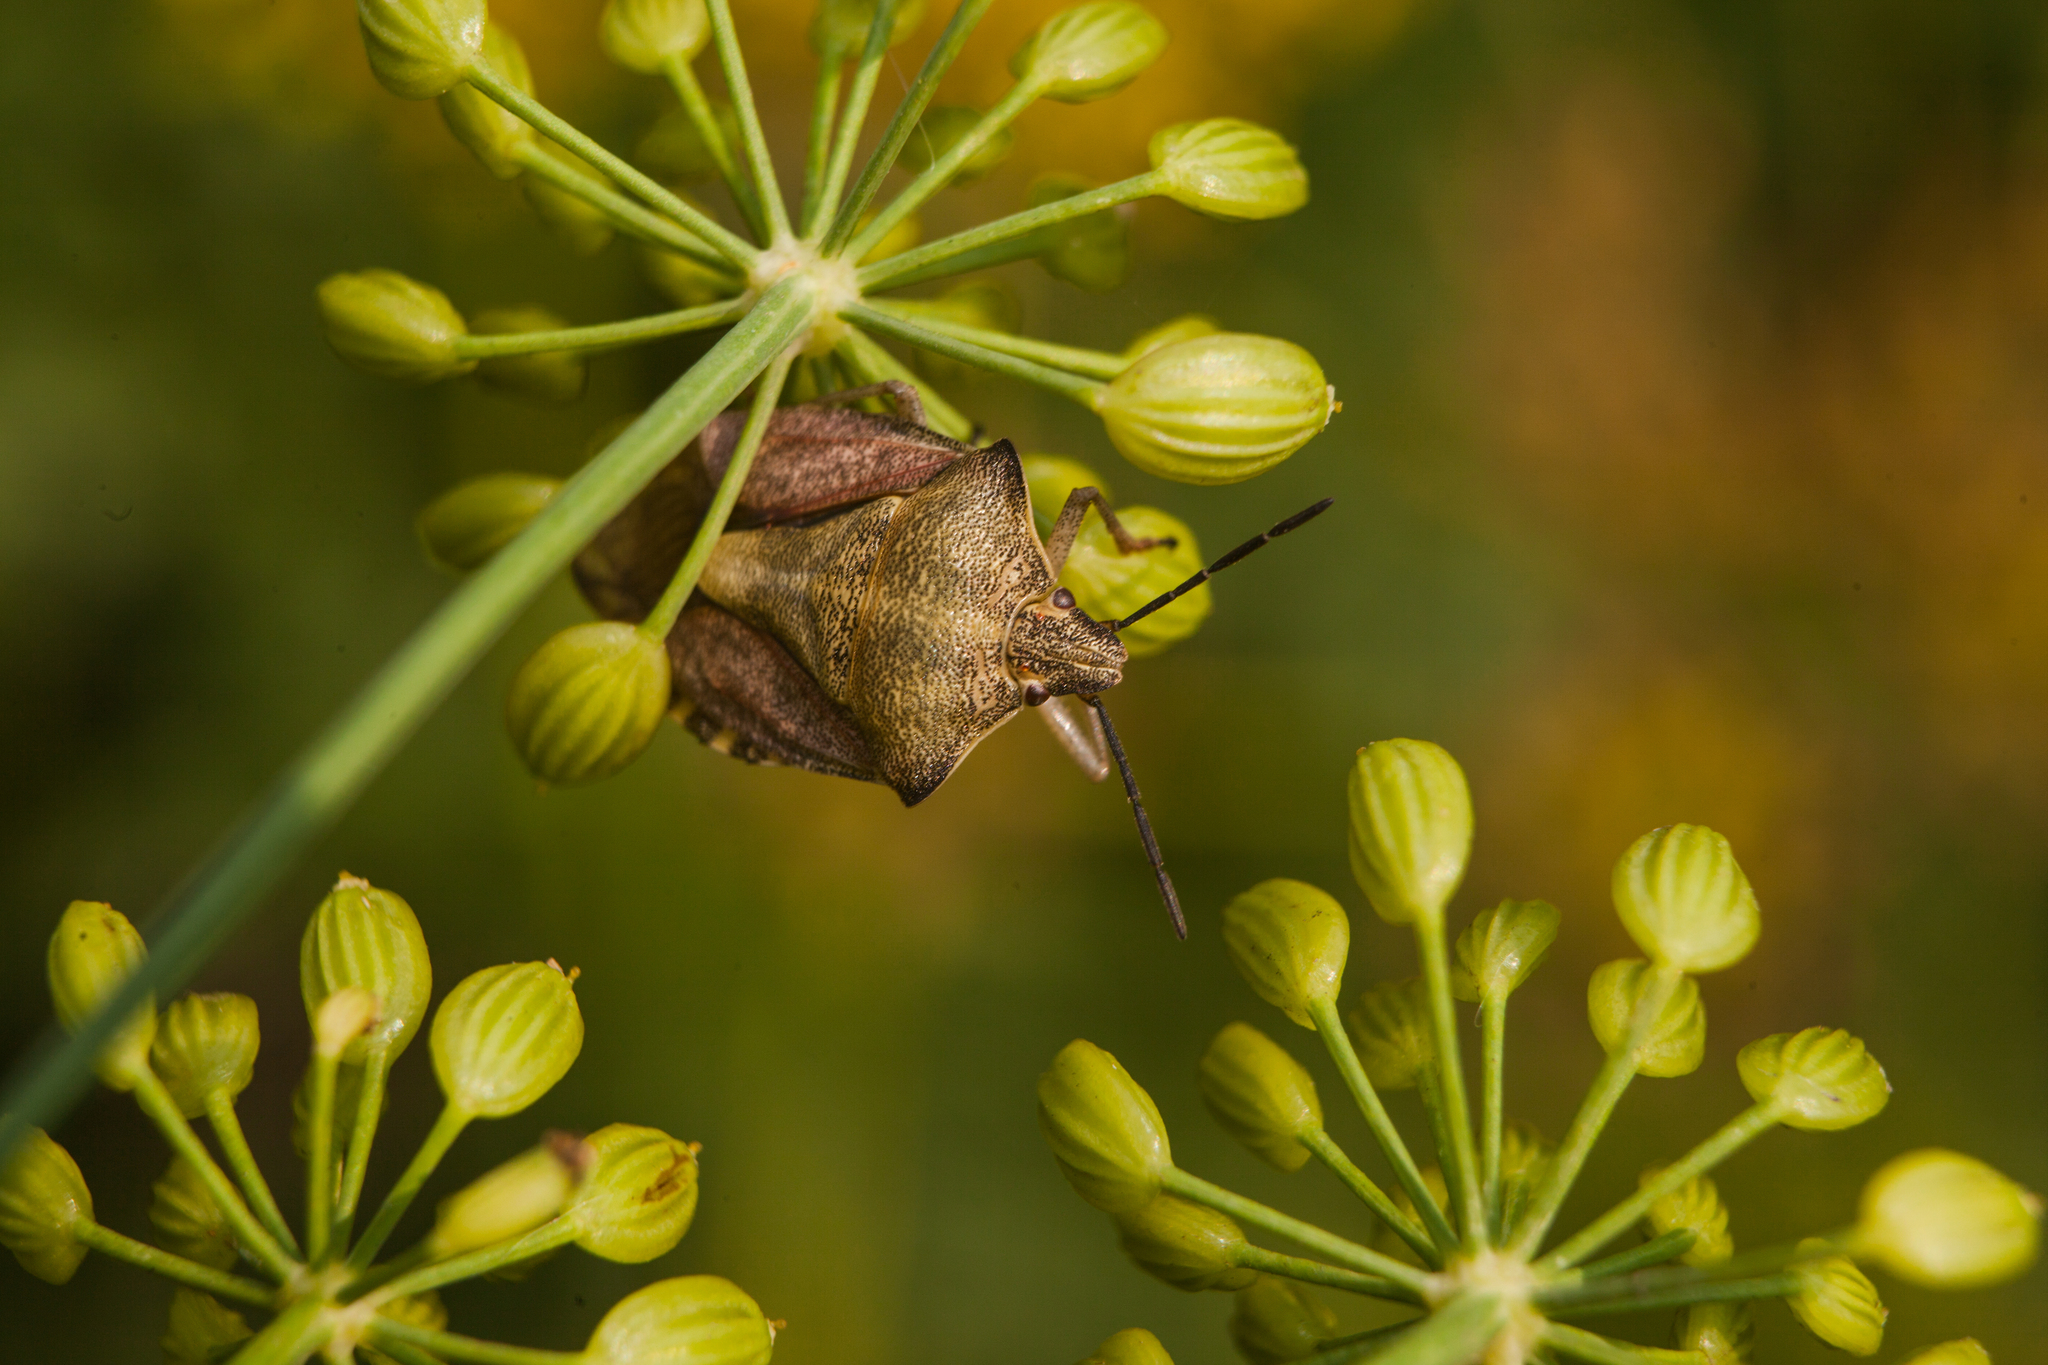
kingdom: Animalia
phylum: Arthropoda
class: Insecta
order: Hemiptera
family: Pentatomidae
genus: Carpocoris
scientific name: Carpocoris purpureipennis
